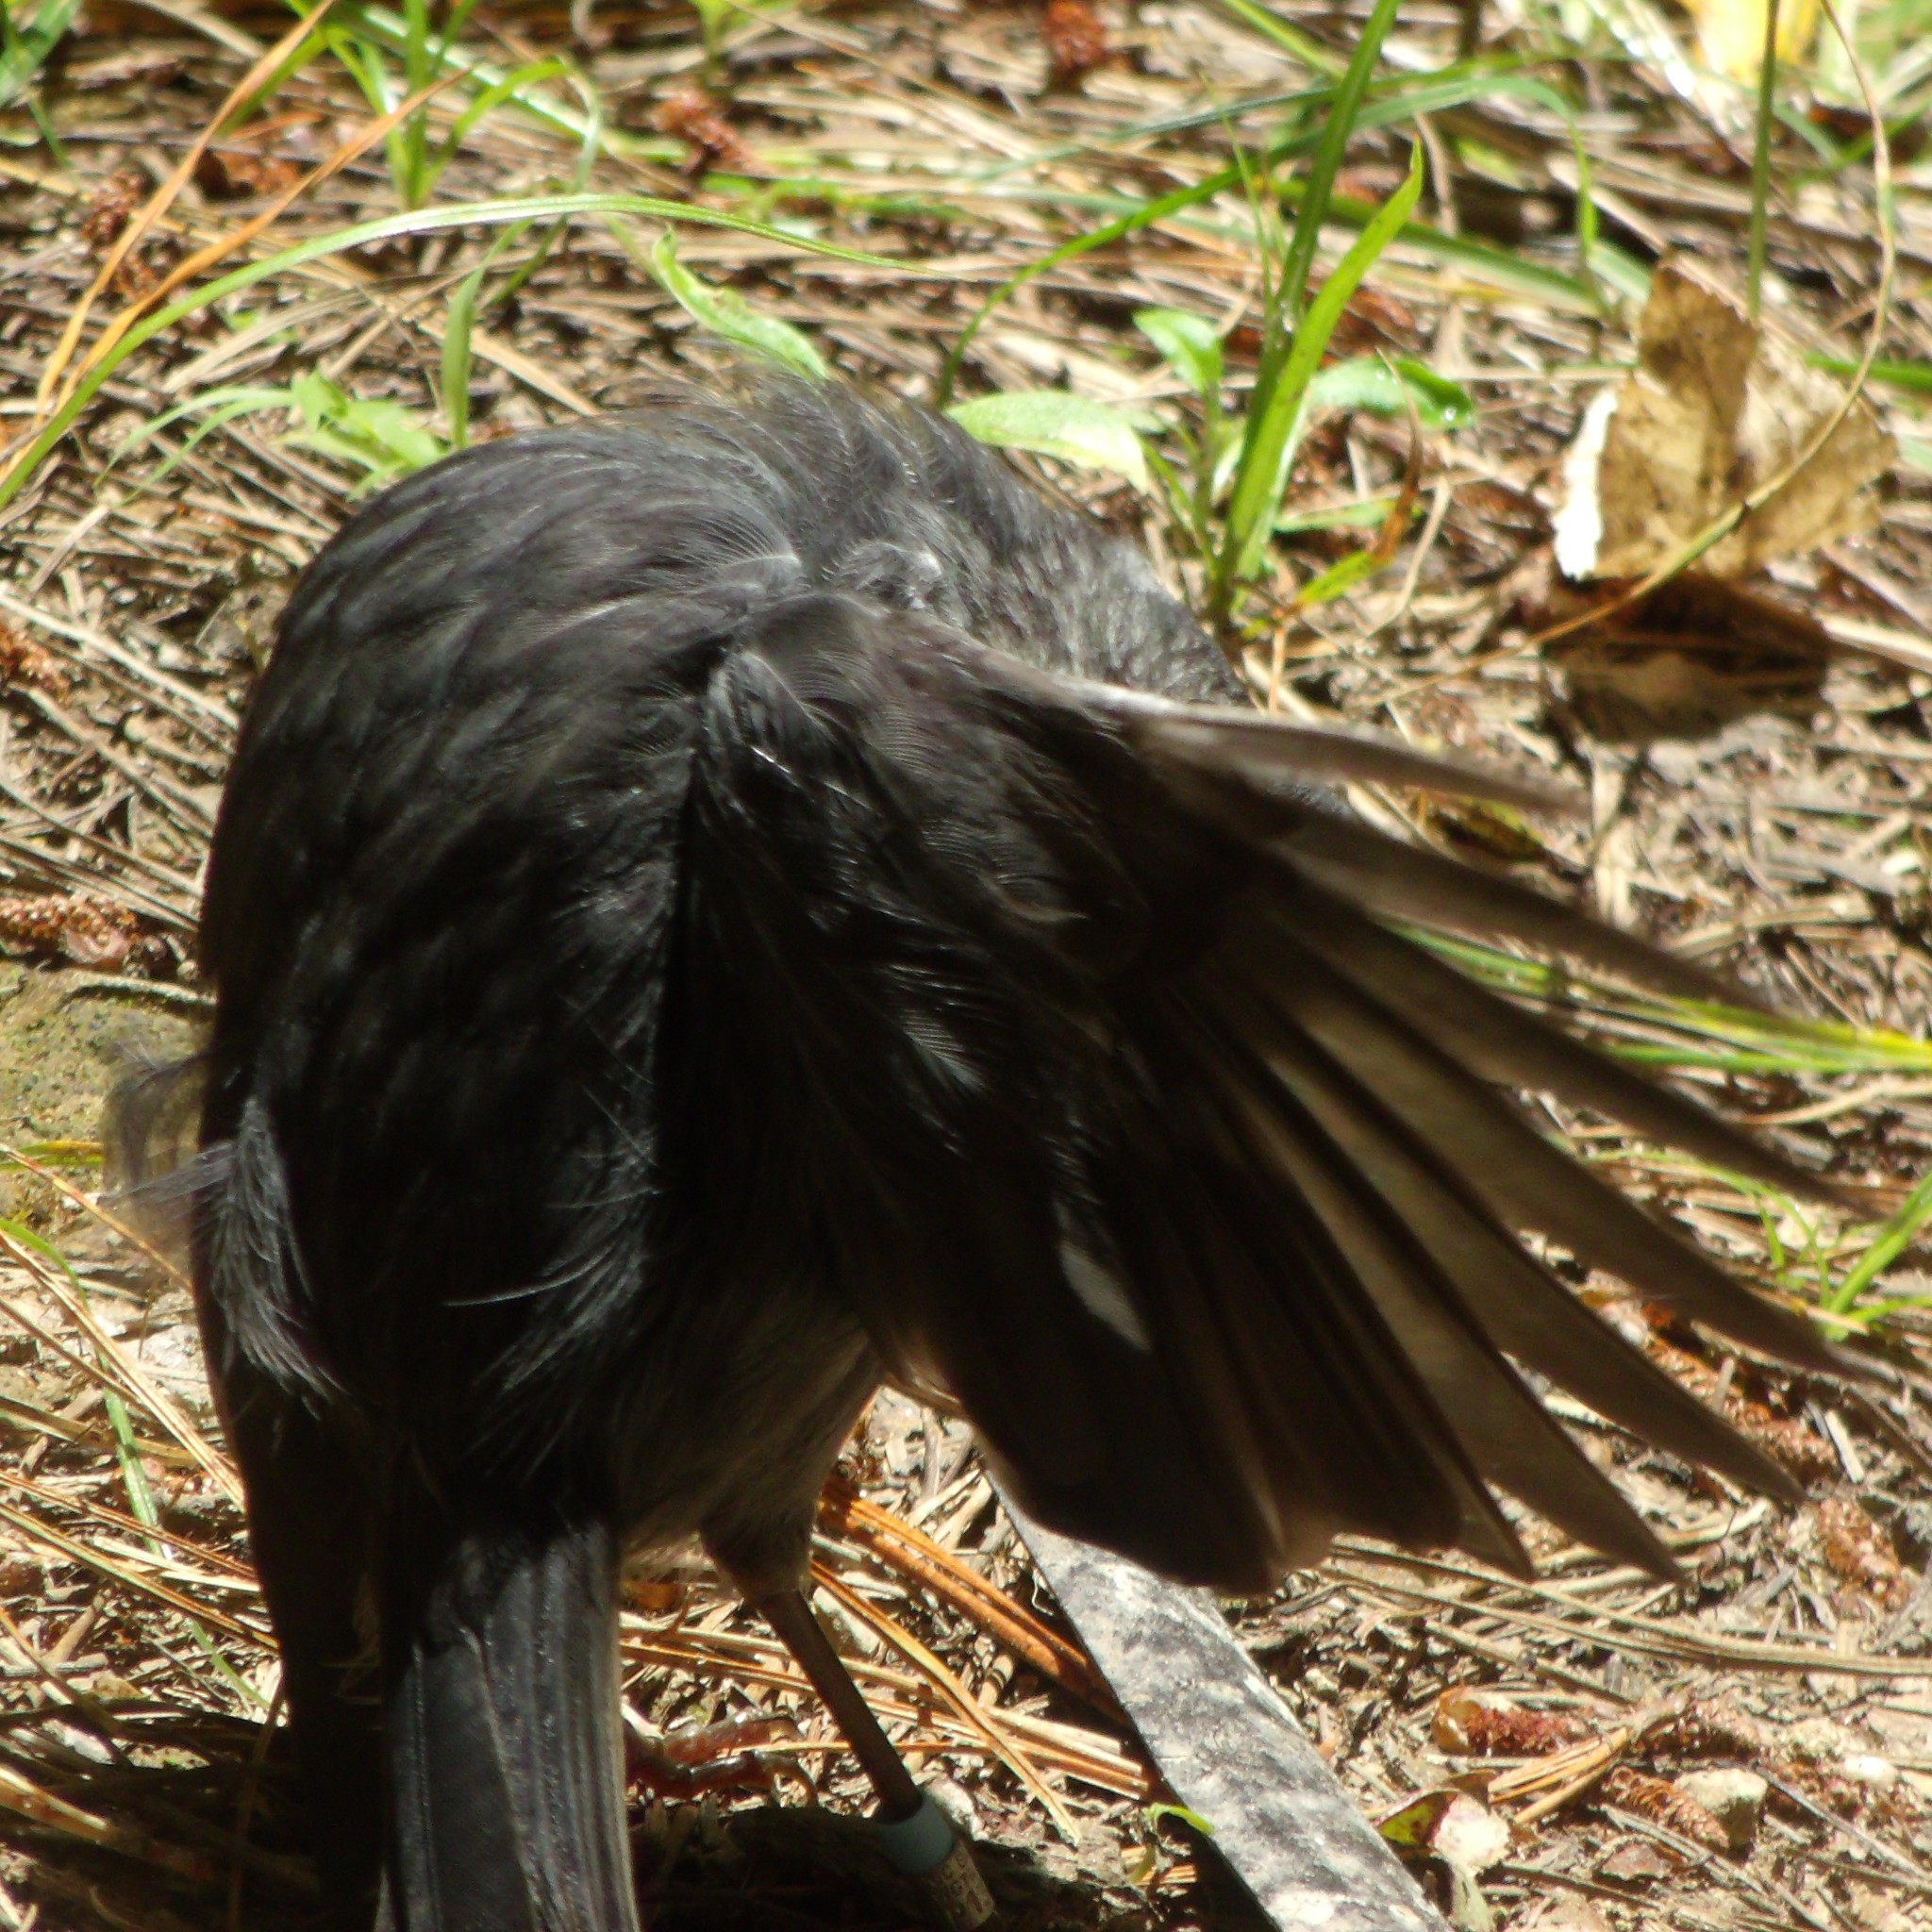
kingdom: Animalia
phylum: Chordata
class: Aves
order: Passeriformes
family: Petroicidae
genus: Petroica
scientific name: Petroica australis
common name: New zealand robin
